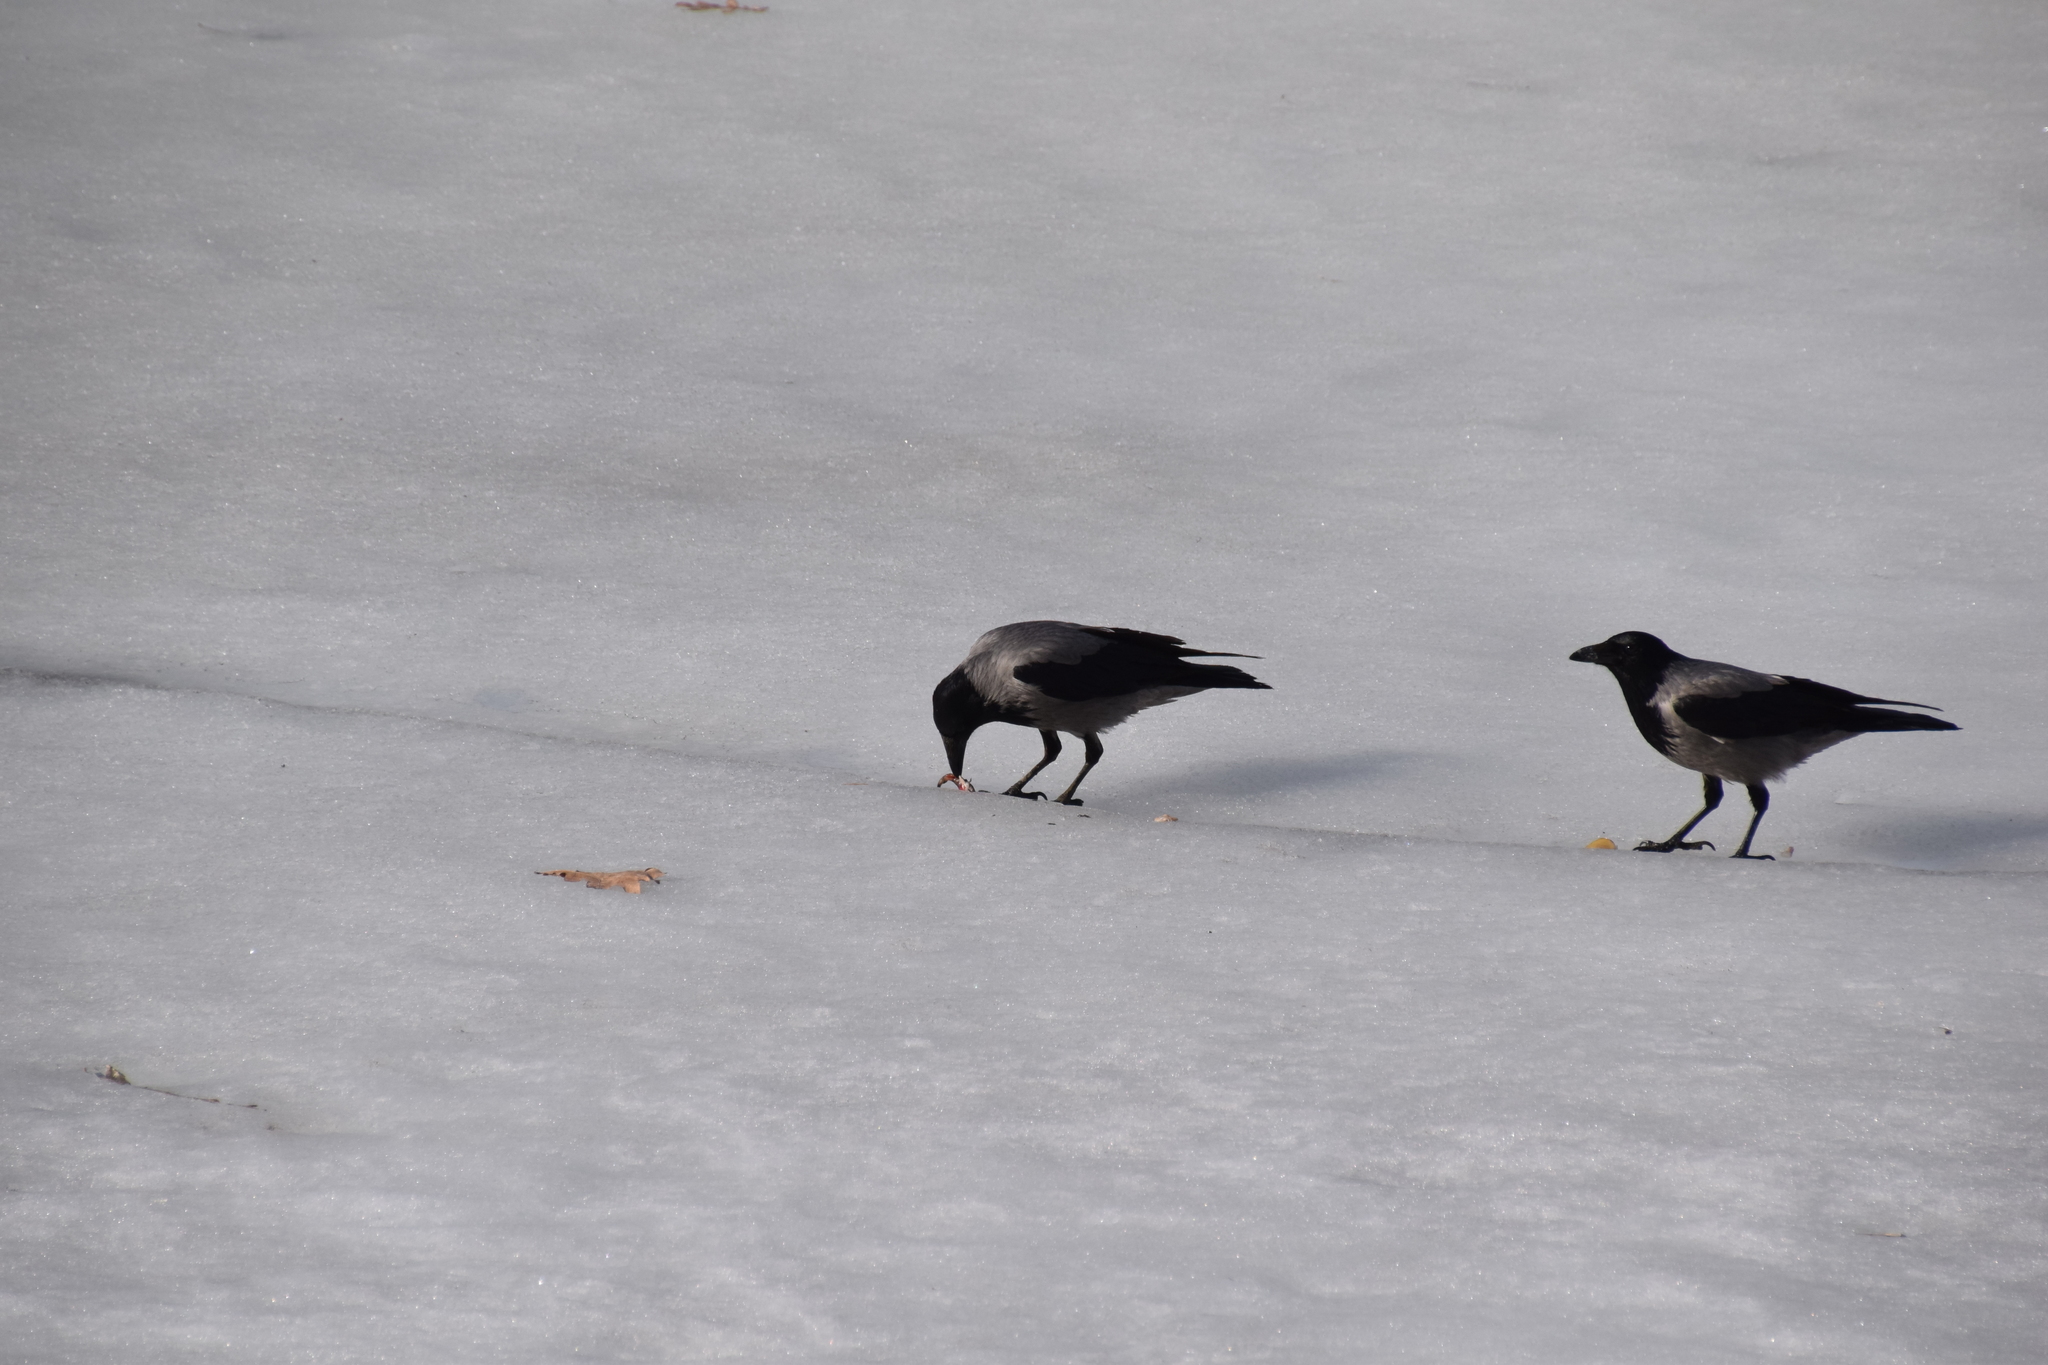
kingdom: Animalia
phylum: Chordata
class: Aves
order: Passeriformes
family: Corvidae
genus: Corvus
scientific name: Corvus cornix
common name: Hooded crow
